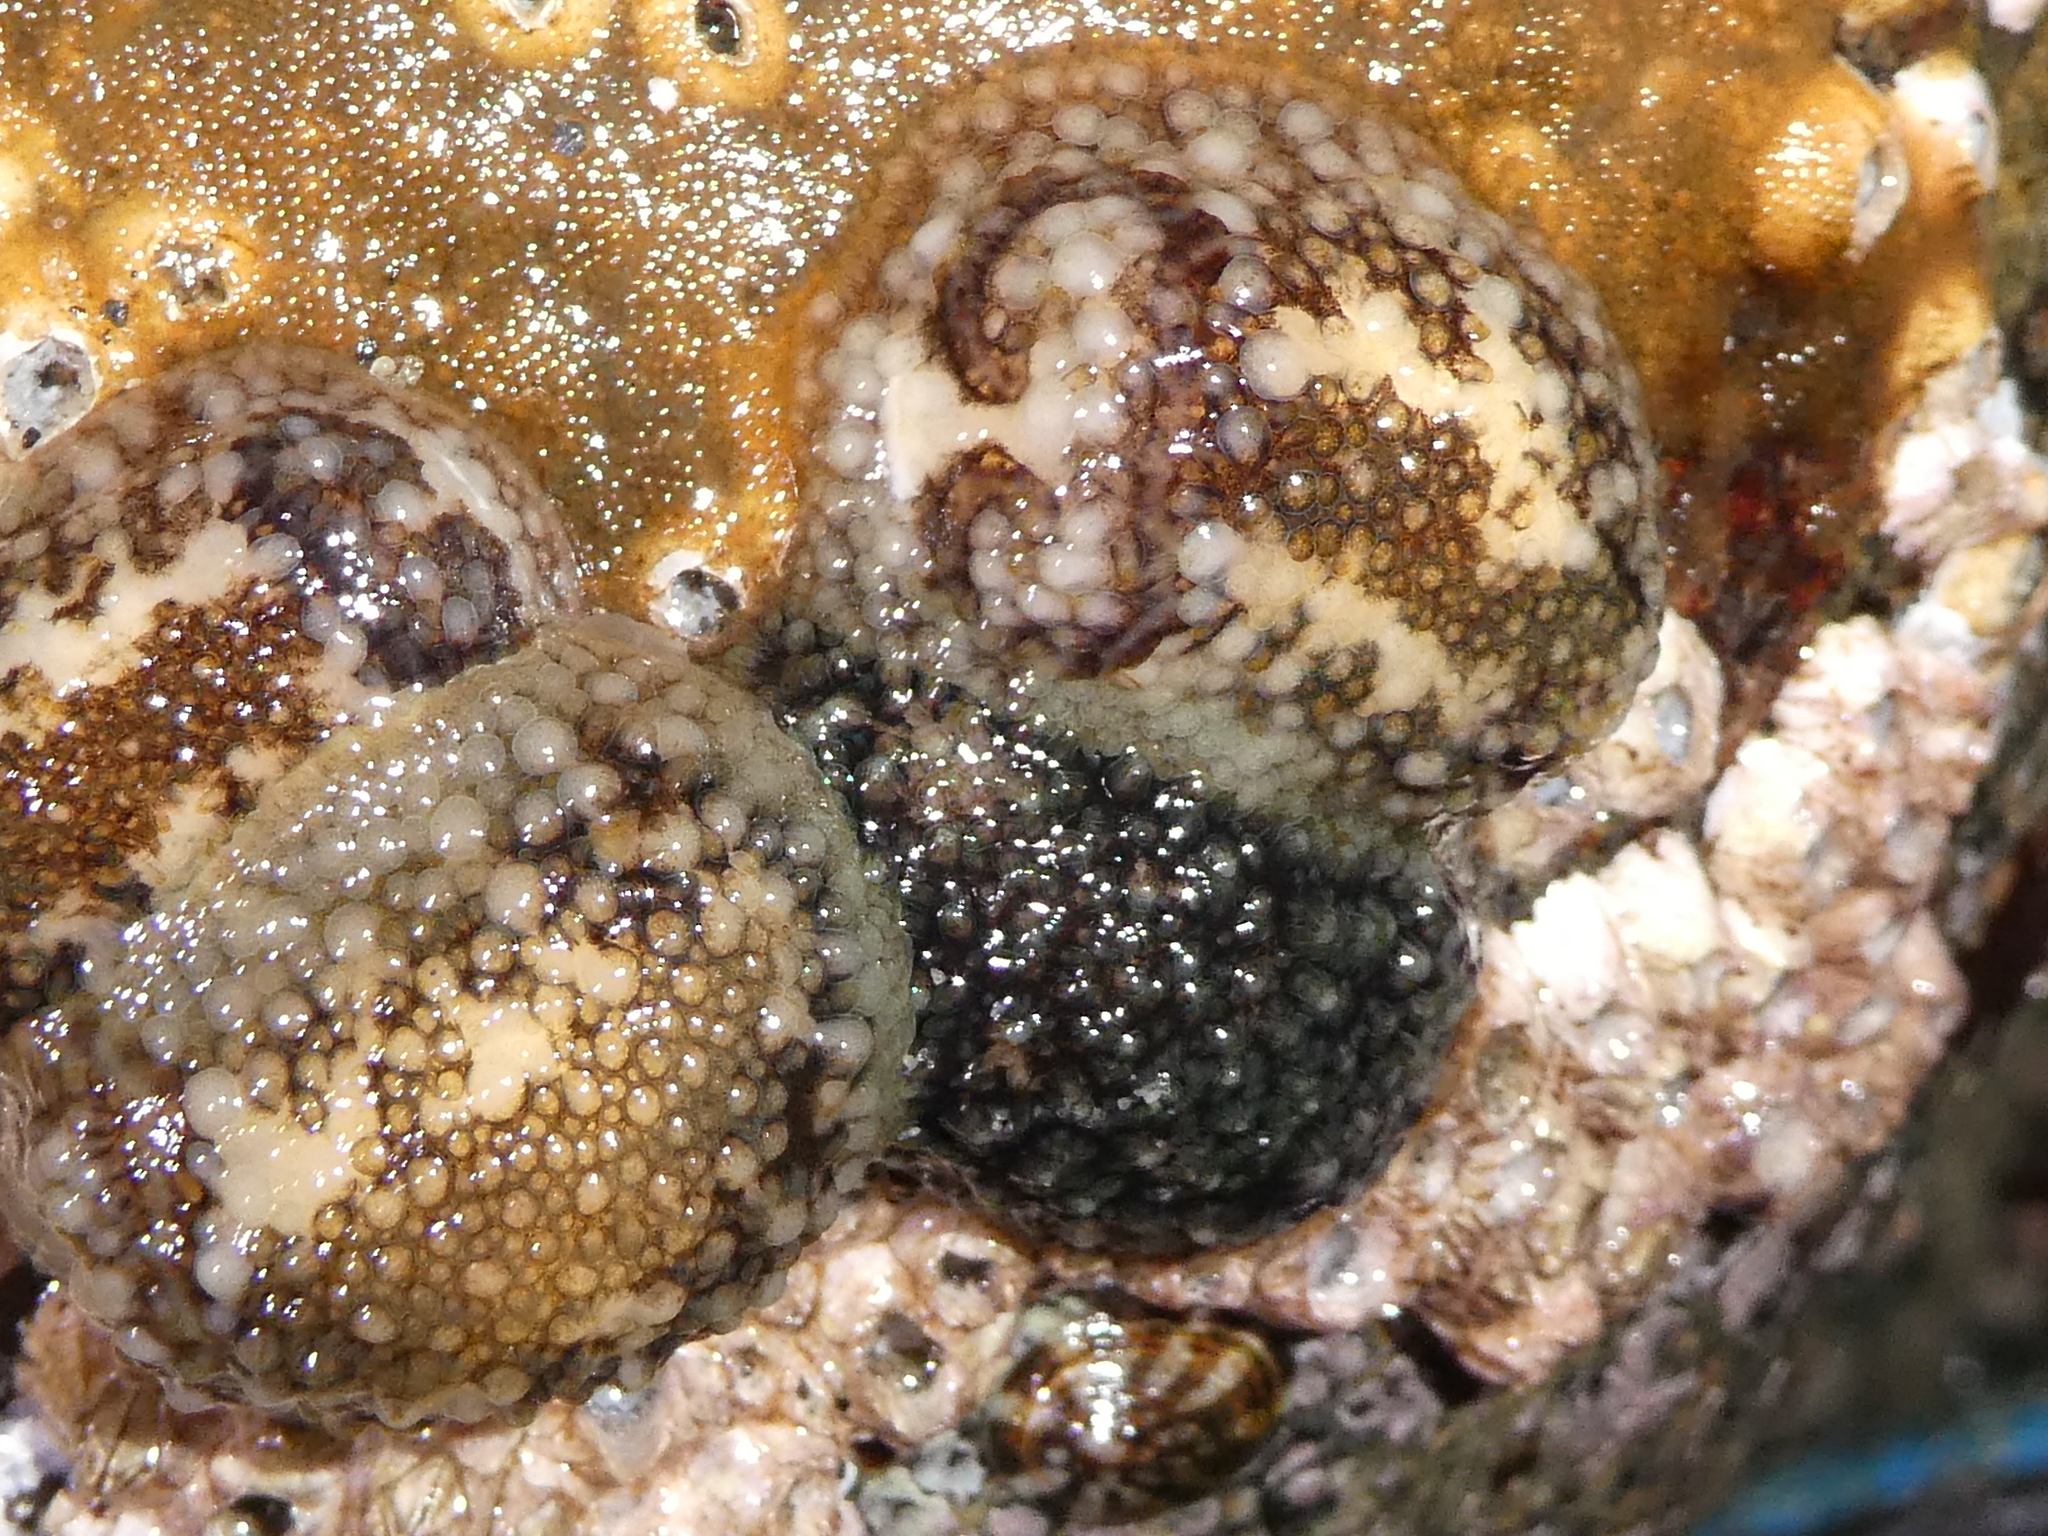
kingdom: Animalia
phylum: Mollusca
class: Gastropoda
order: Nudibranchia
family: Onchidorididae
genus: Onchidoris
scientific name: Onchidoris bilamellata
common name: Barnacle-eating onchidoris
